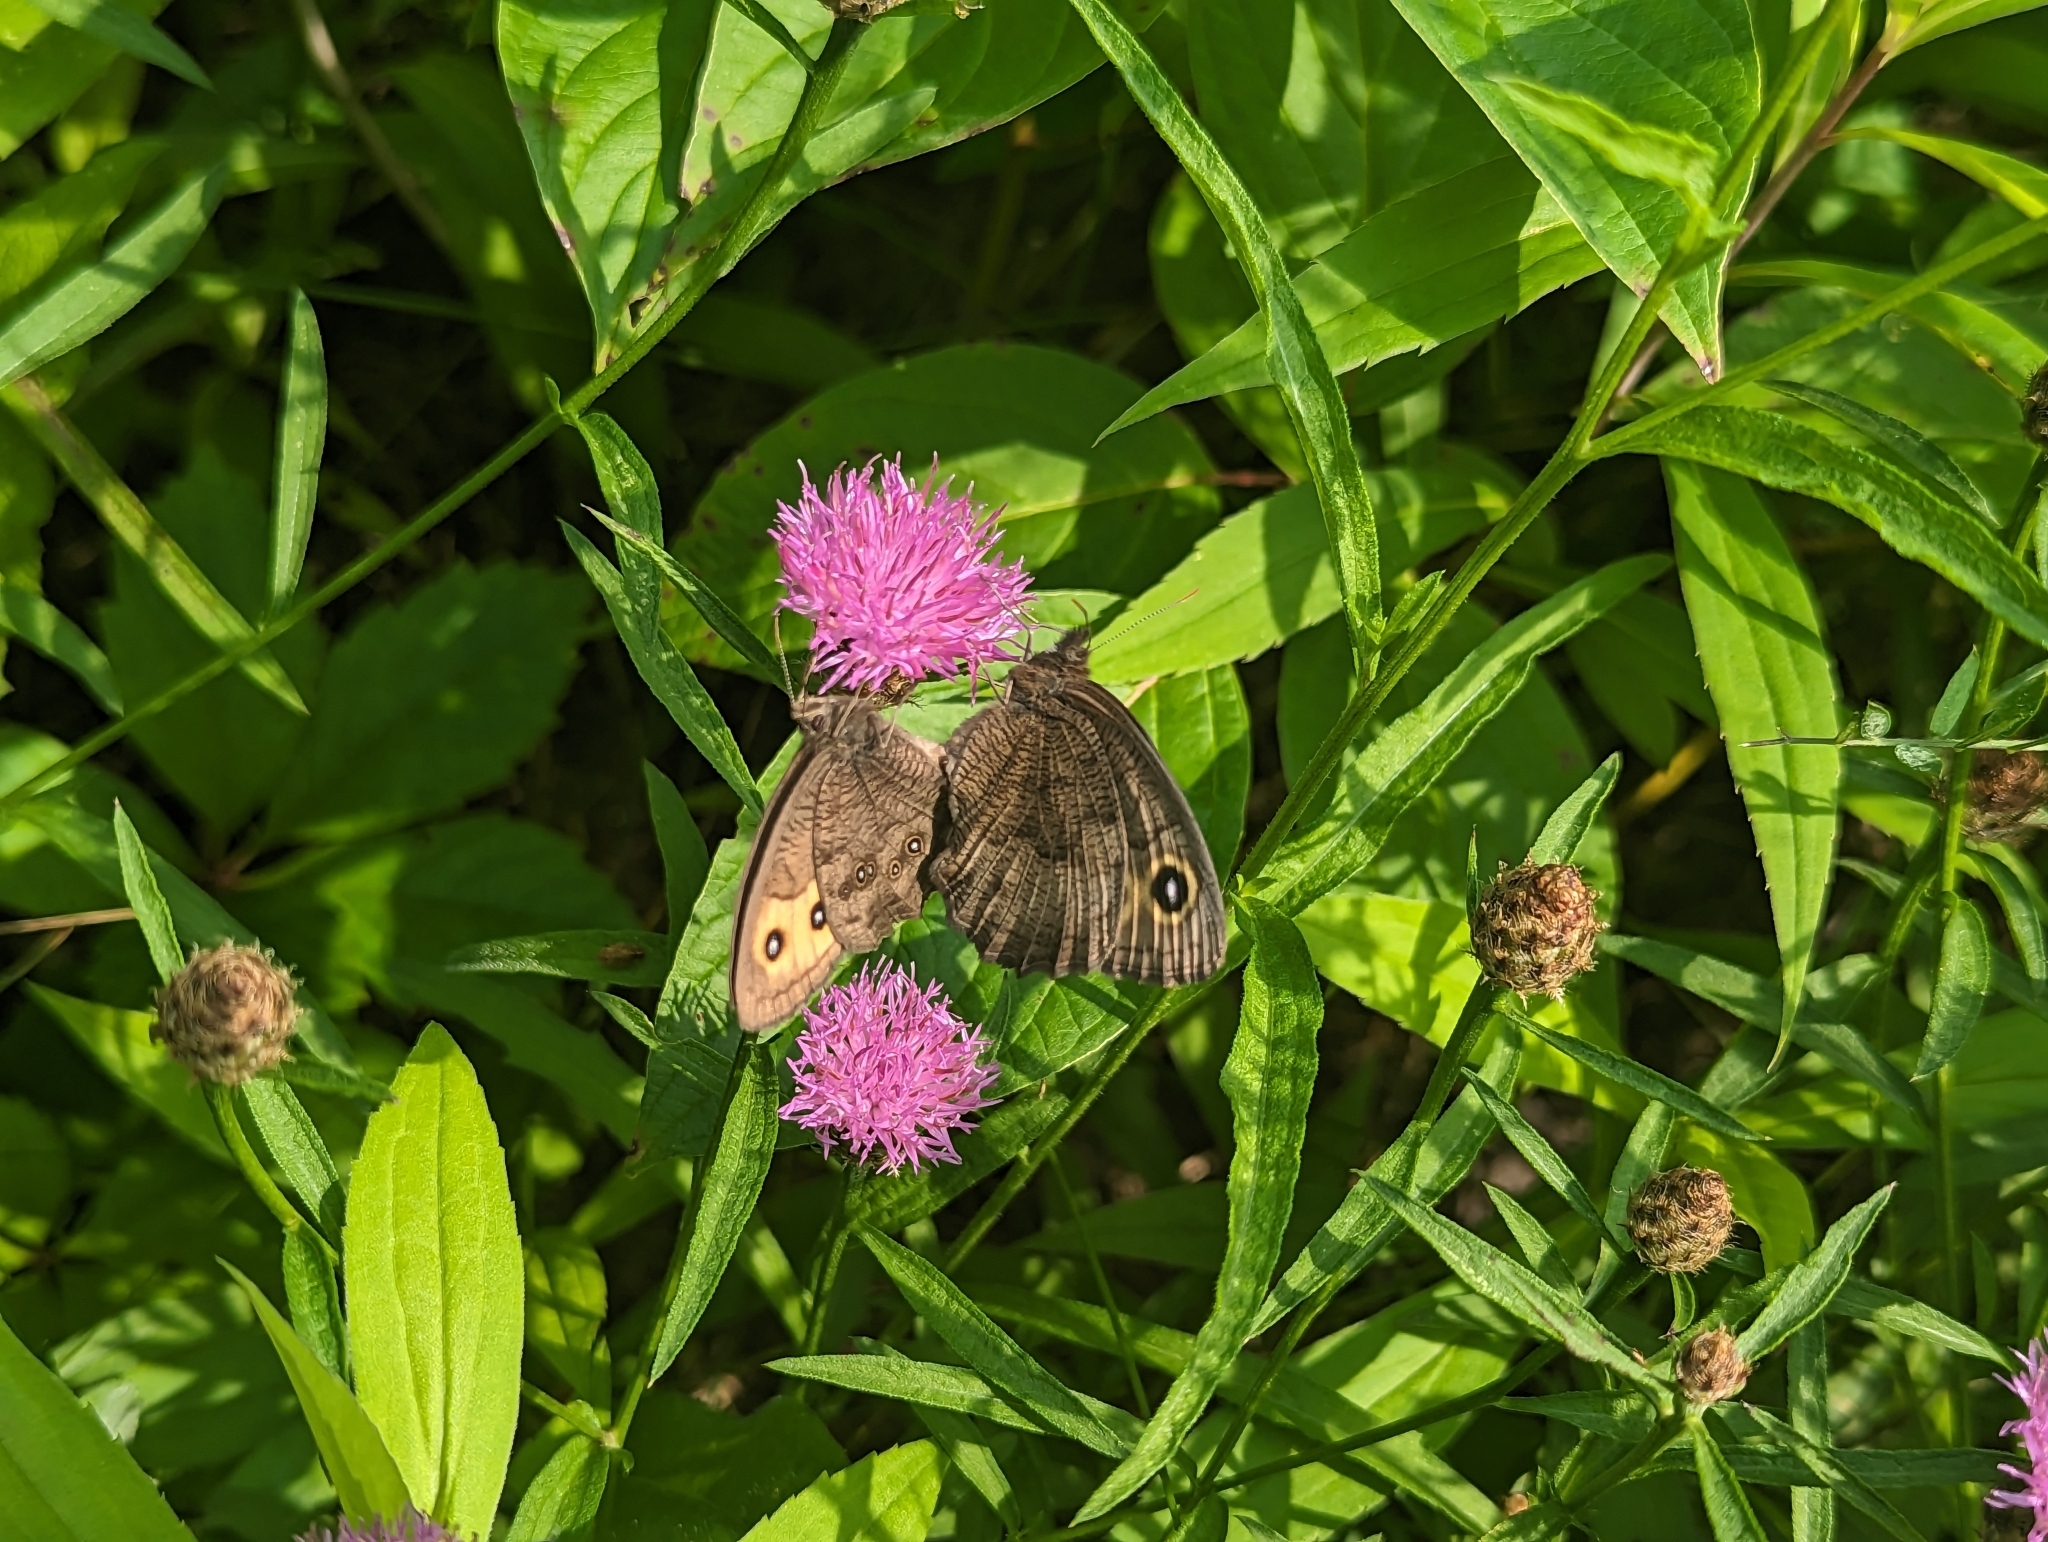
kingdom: Animalia
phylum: Arthropoda
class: Insecta
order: Lepidoptera
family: Nymphalidae
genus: Cercyonis
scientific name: Cercyonis pegala
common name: Common wood-nymph
